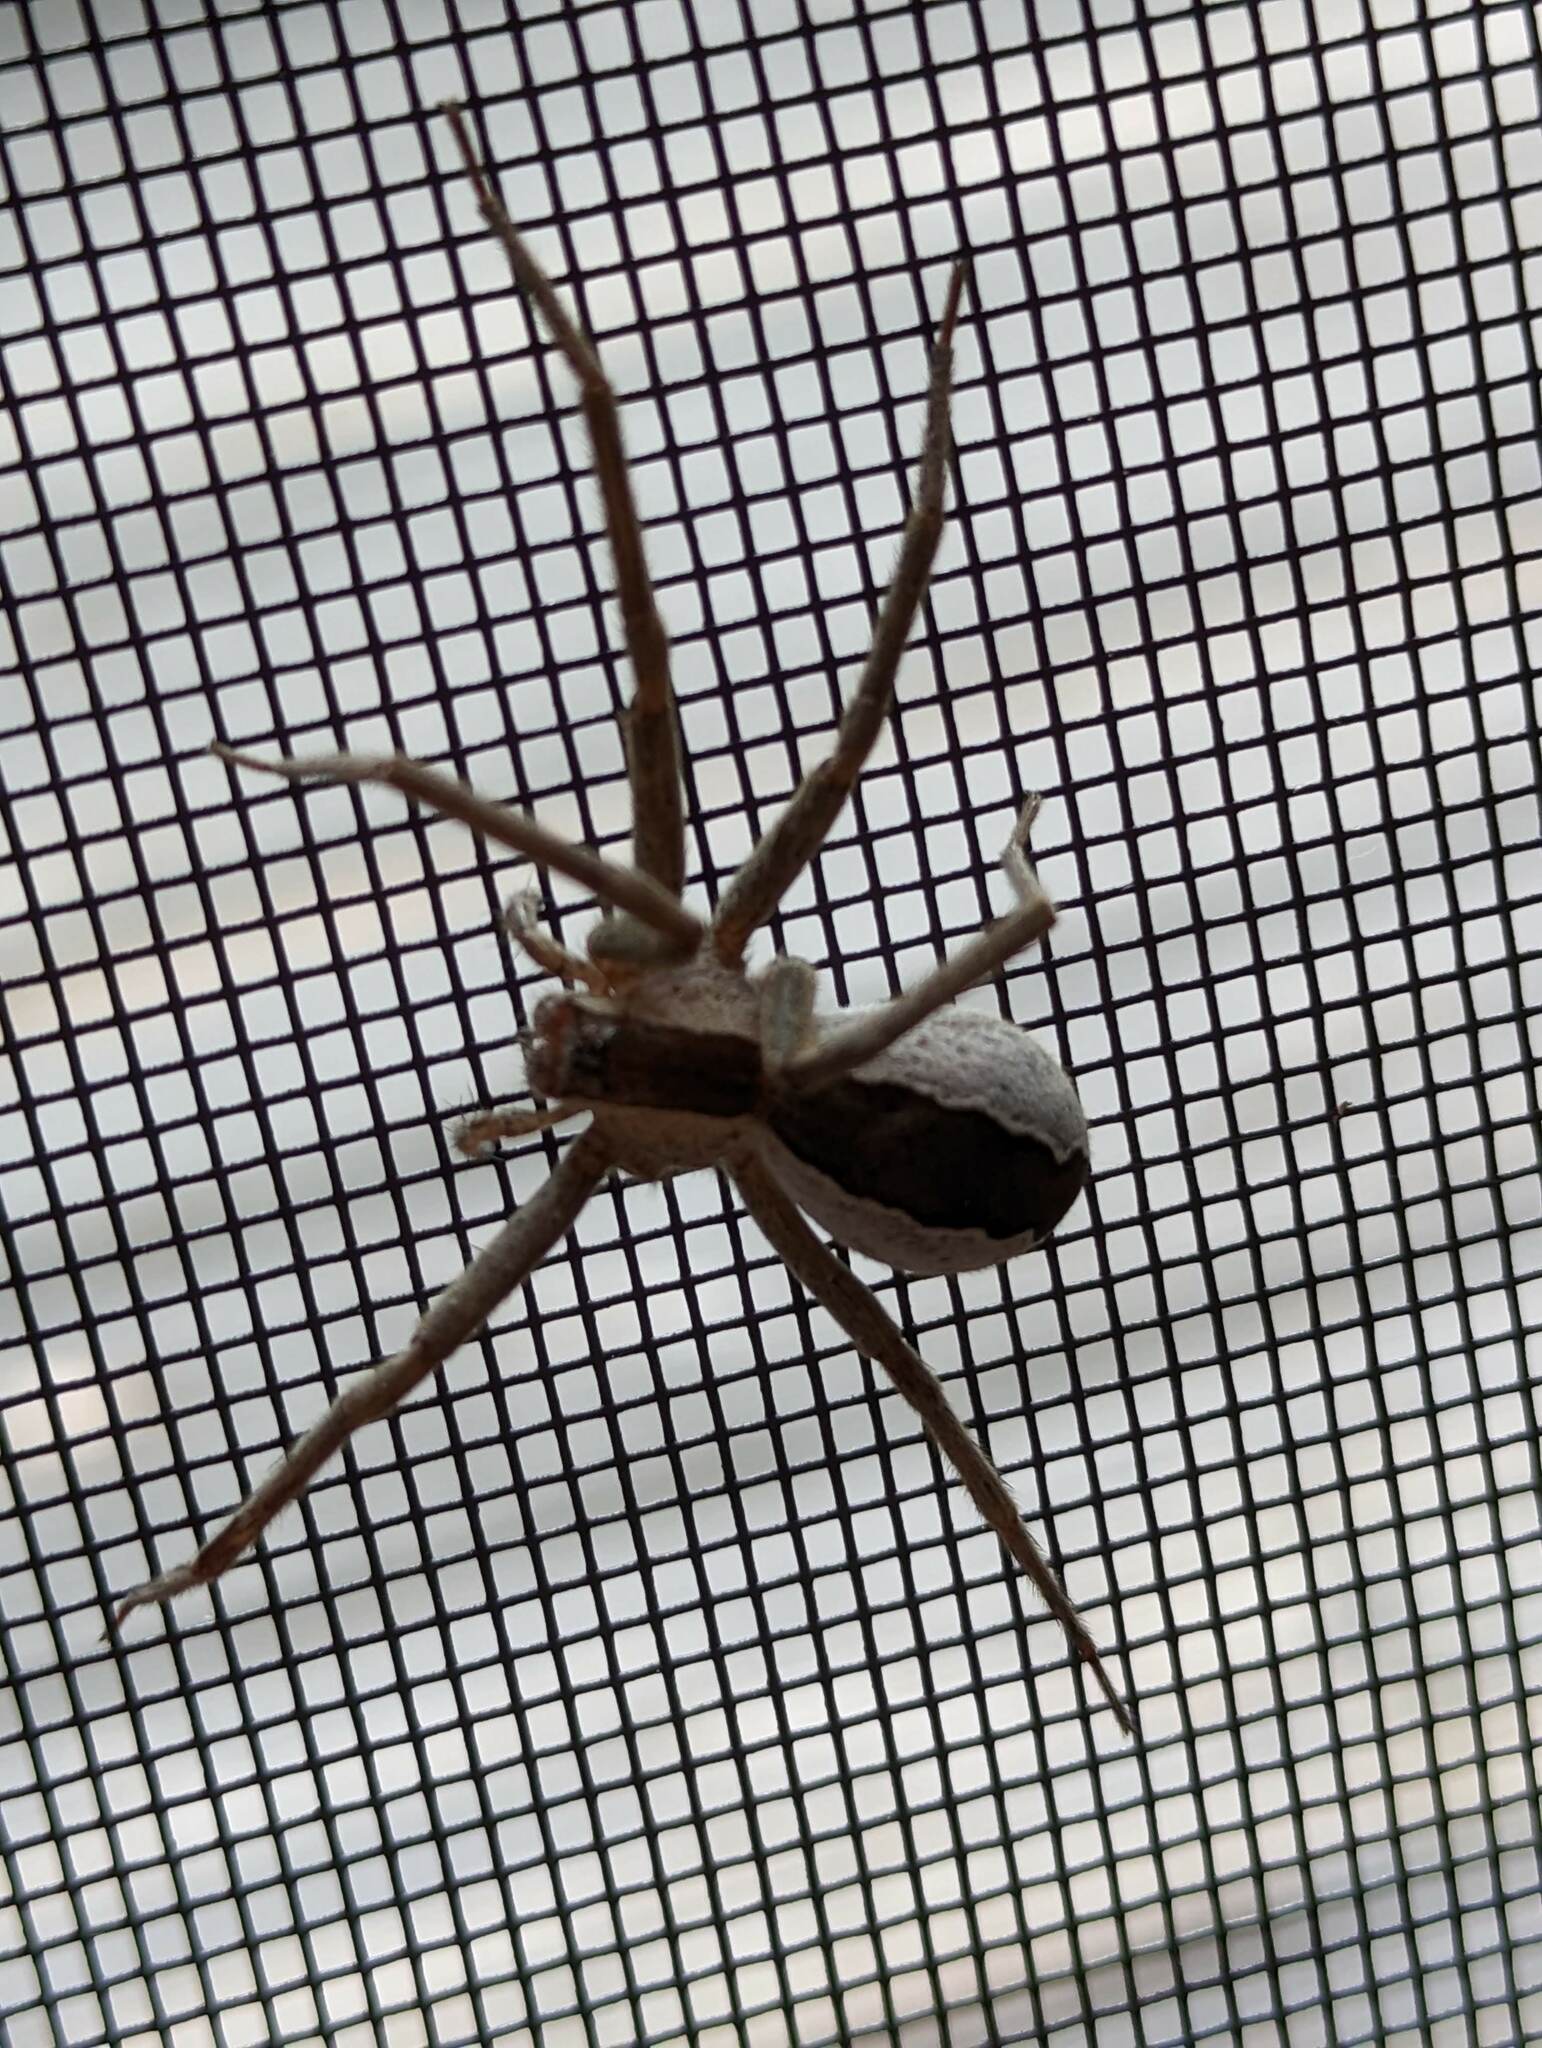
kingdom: Animalia
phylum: Arthropoda
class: Arachnida
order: Araneae
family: Pisauridae
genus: Pisaurina
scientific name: Pisaurina mira
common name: American nursery web spider
